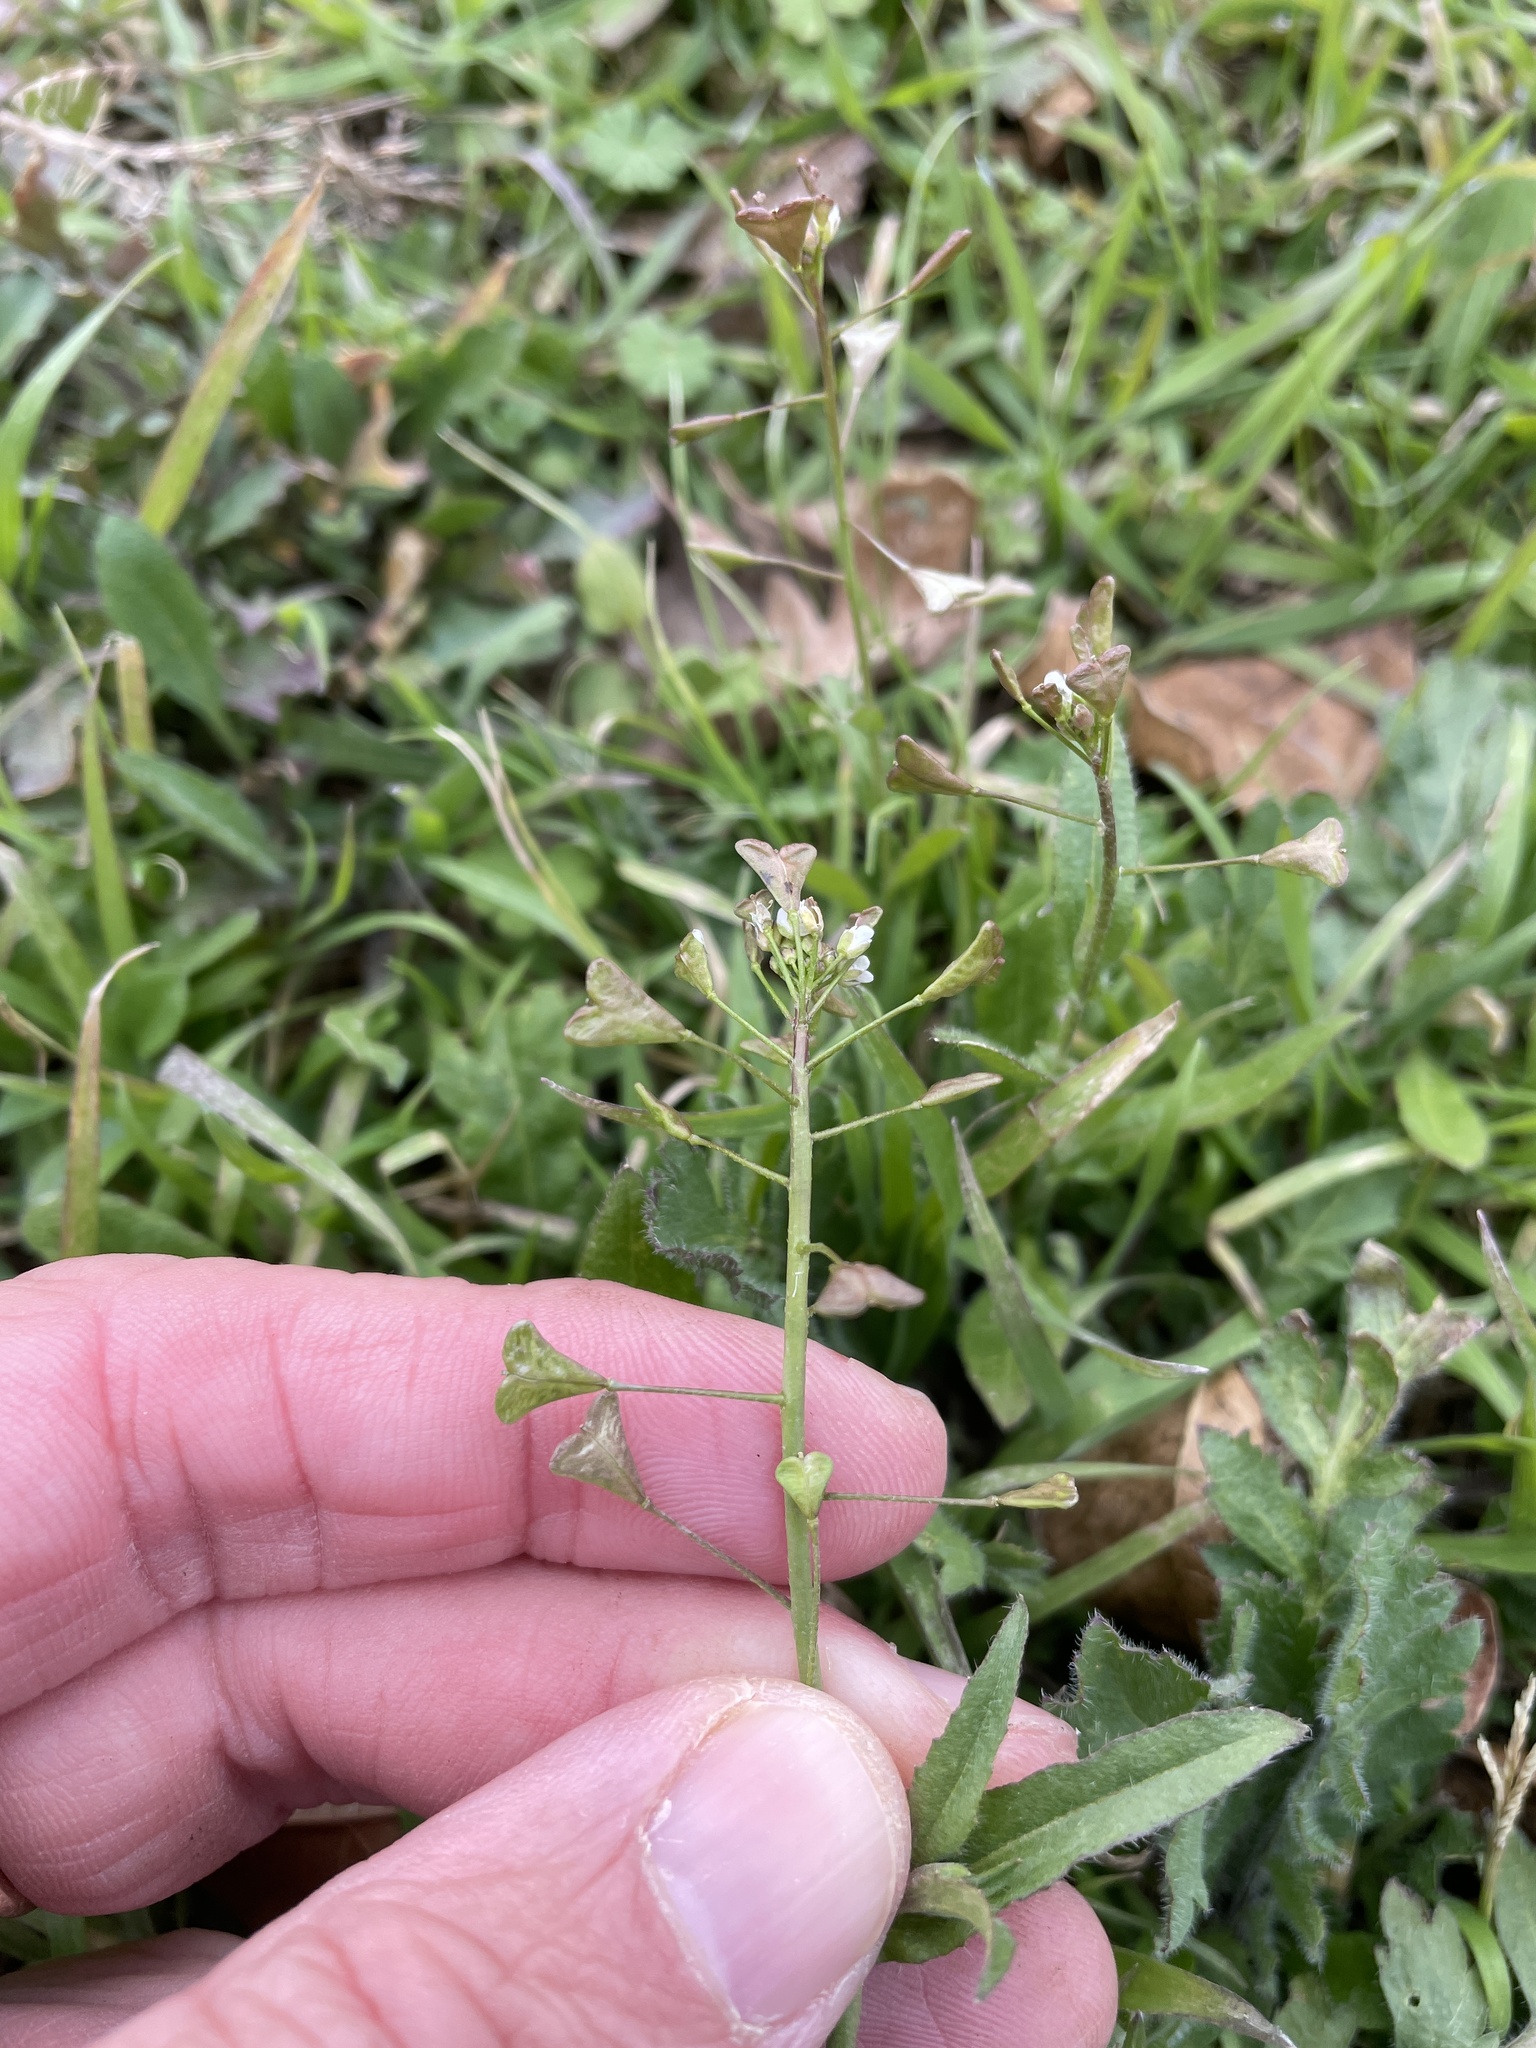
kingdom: Plantae
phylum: Tracheophyta
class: Magnoliopsida
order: Brassicales
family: Brassicaceae
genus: Capsella
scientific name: Capsella bursa-pastoris
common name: Shepherd's purse
